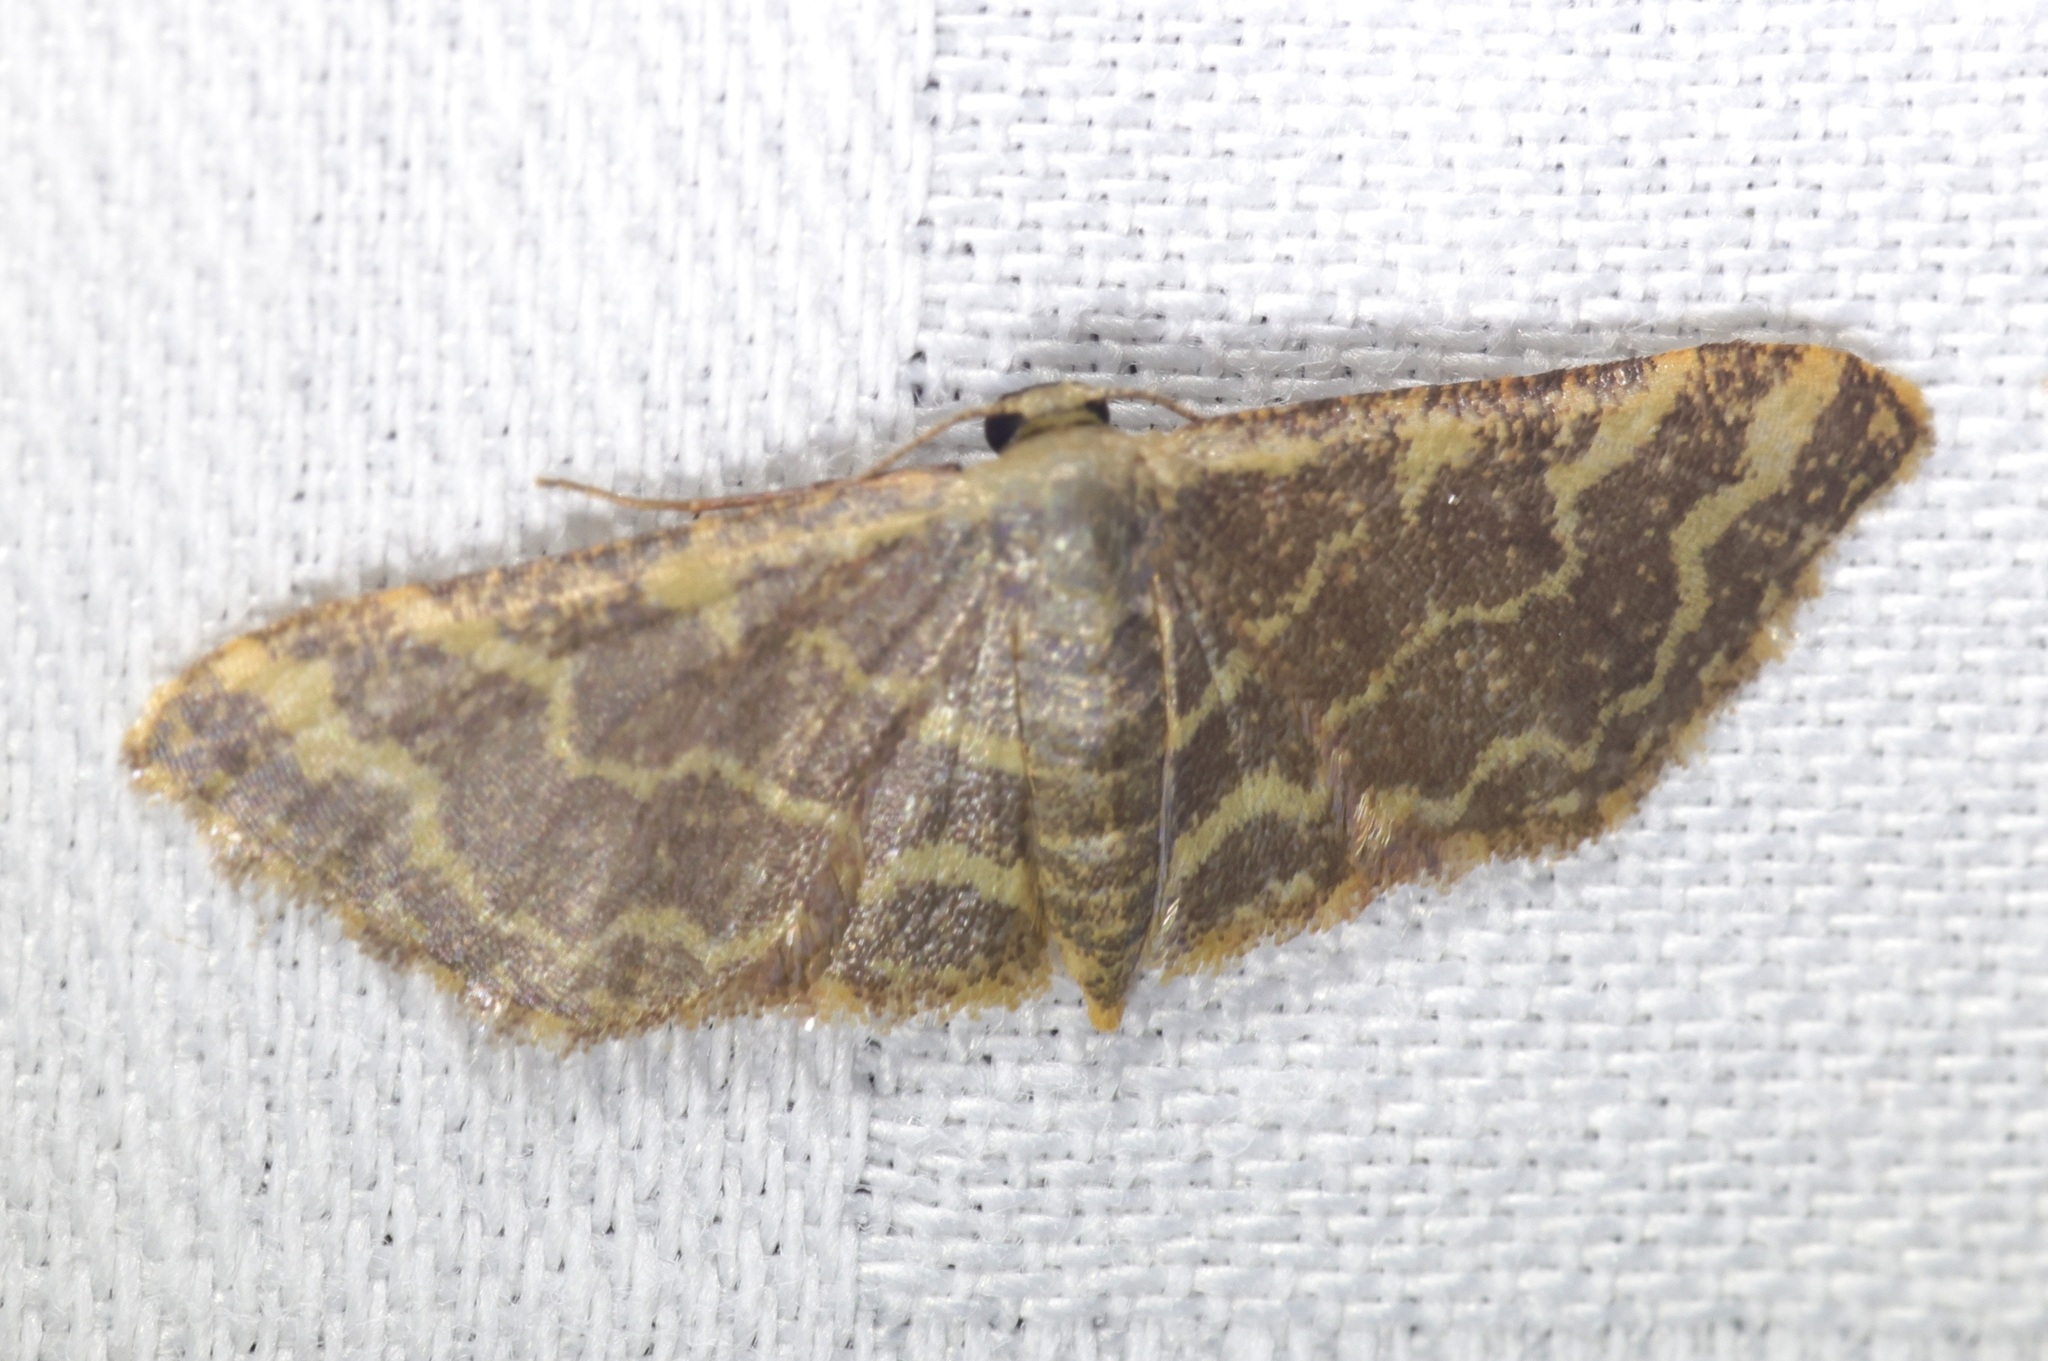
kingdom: Animalia
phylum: Arthropoda
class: Insecta
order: Lepidoptera
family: Geometridae
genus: Lophophleps
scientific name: Lophophleps purpurea
